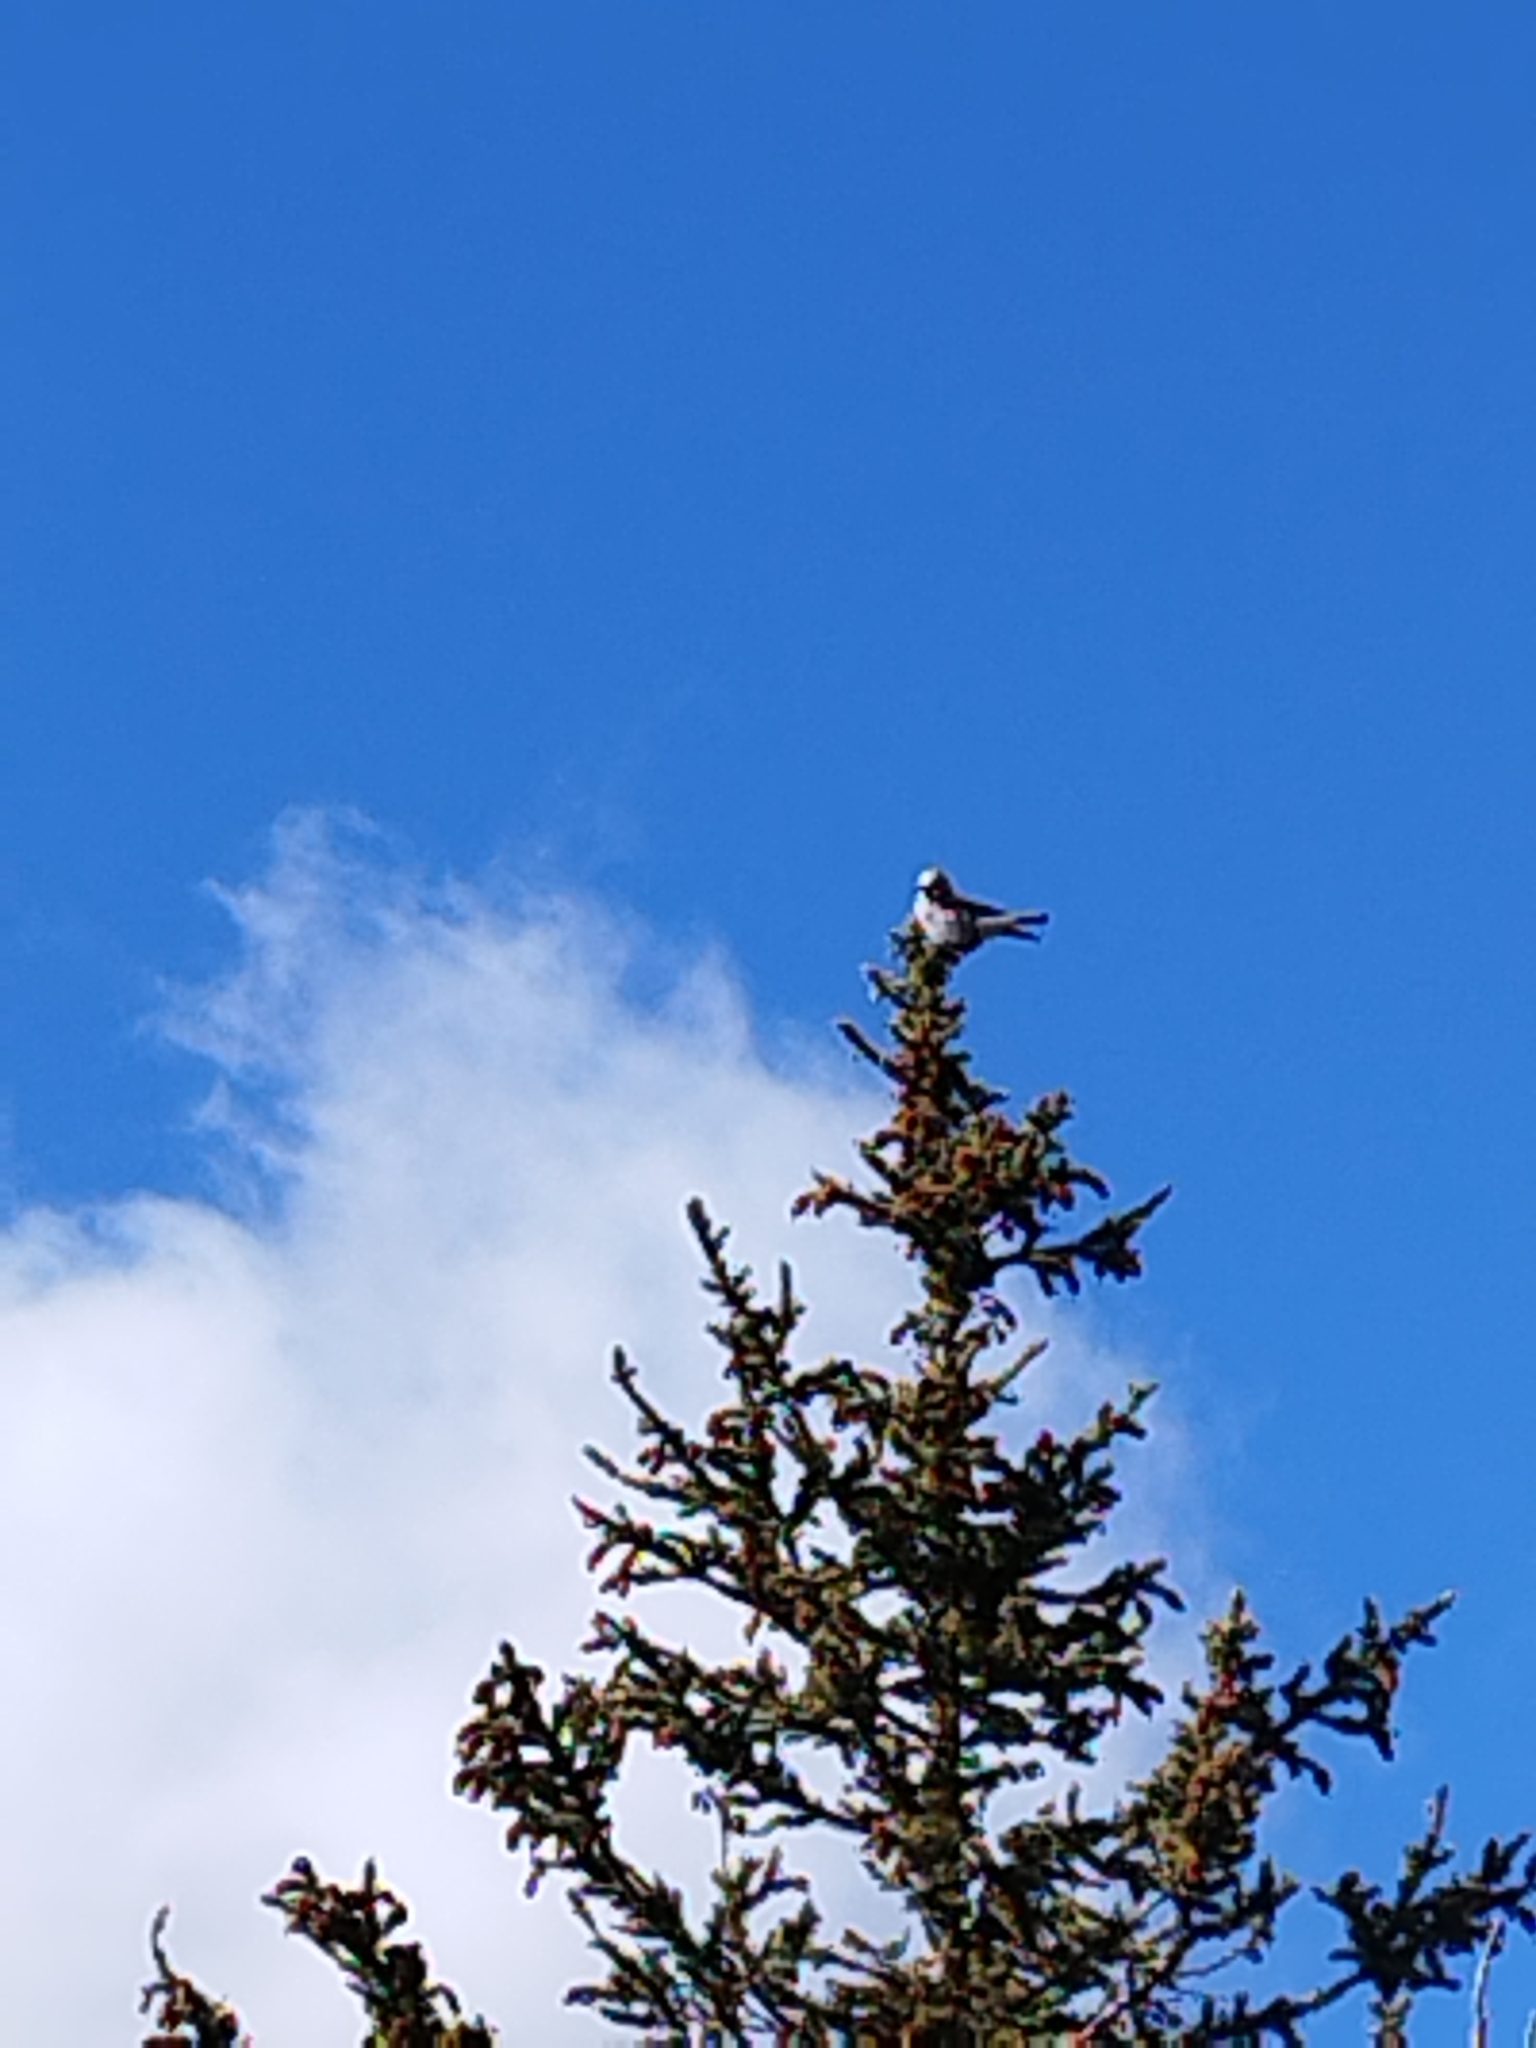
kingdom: Animalia
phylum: Chordata
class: Aves
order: Passeriformes
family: Corvidae
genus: Nucifraga
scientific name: Nucifraga columbiana
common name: Clark's nutcracker
